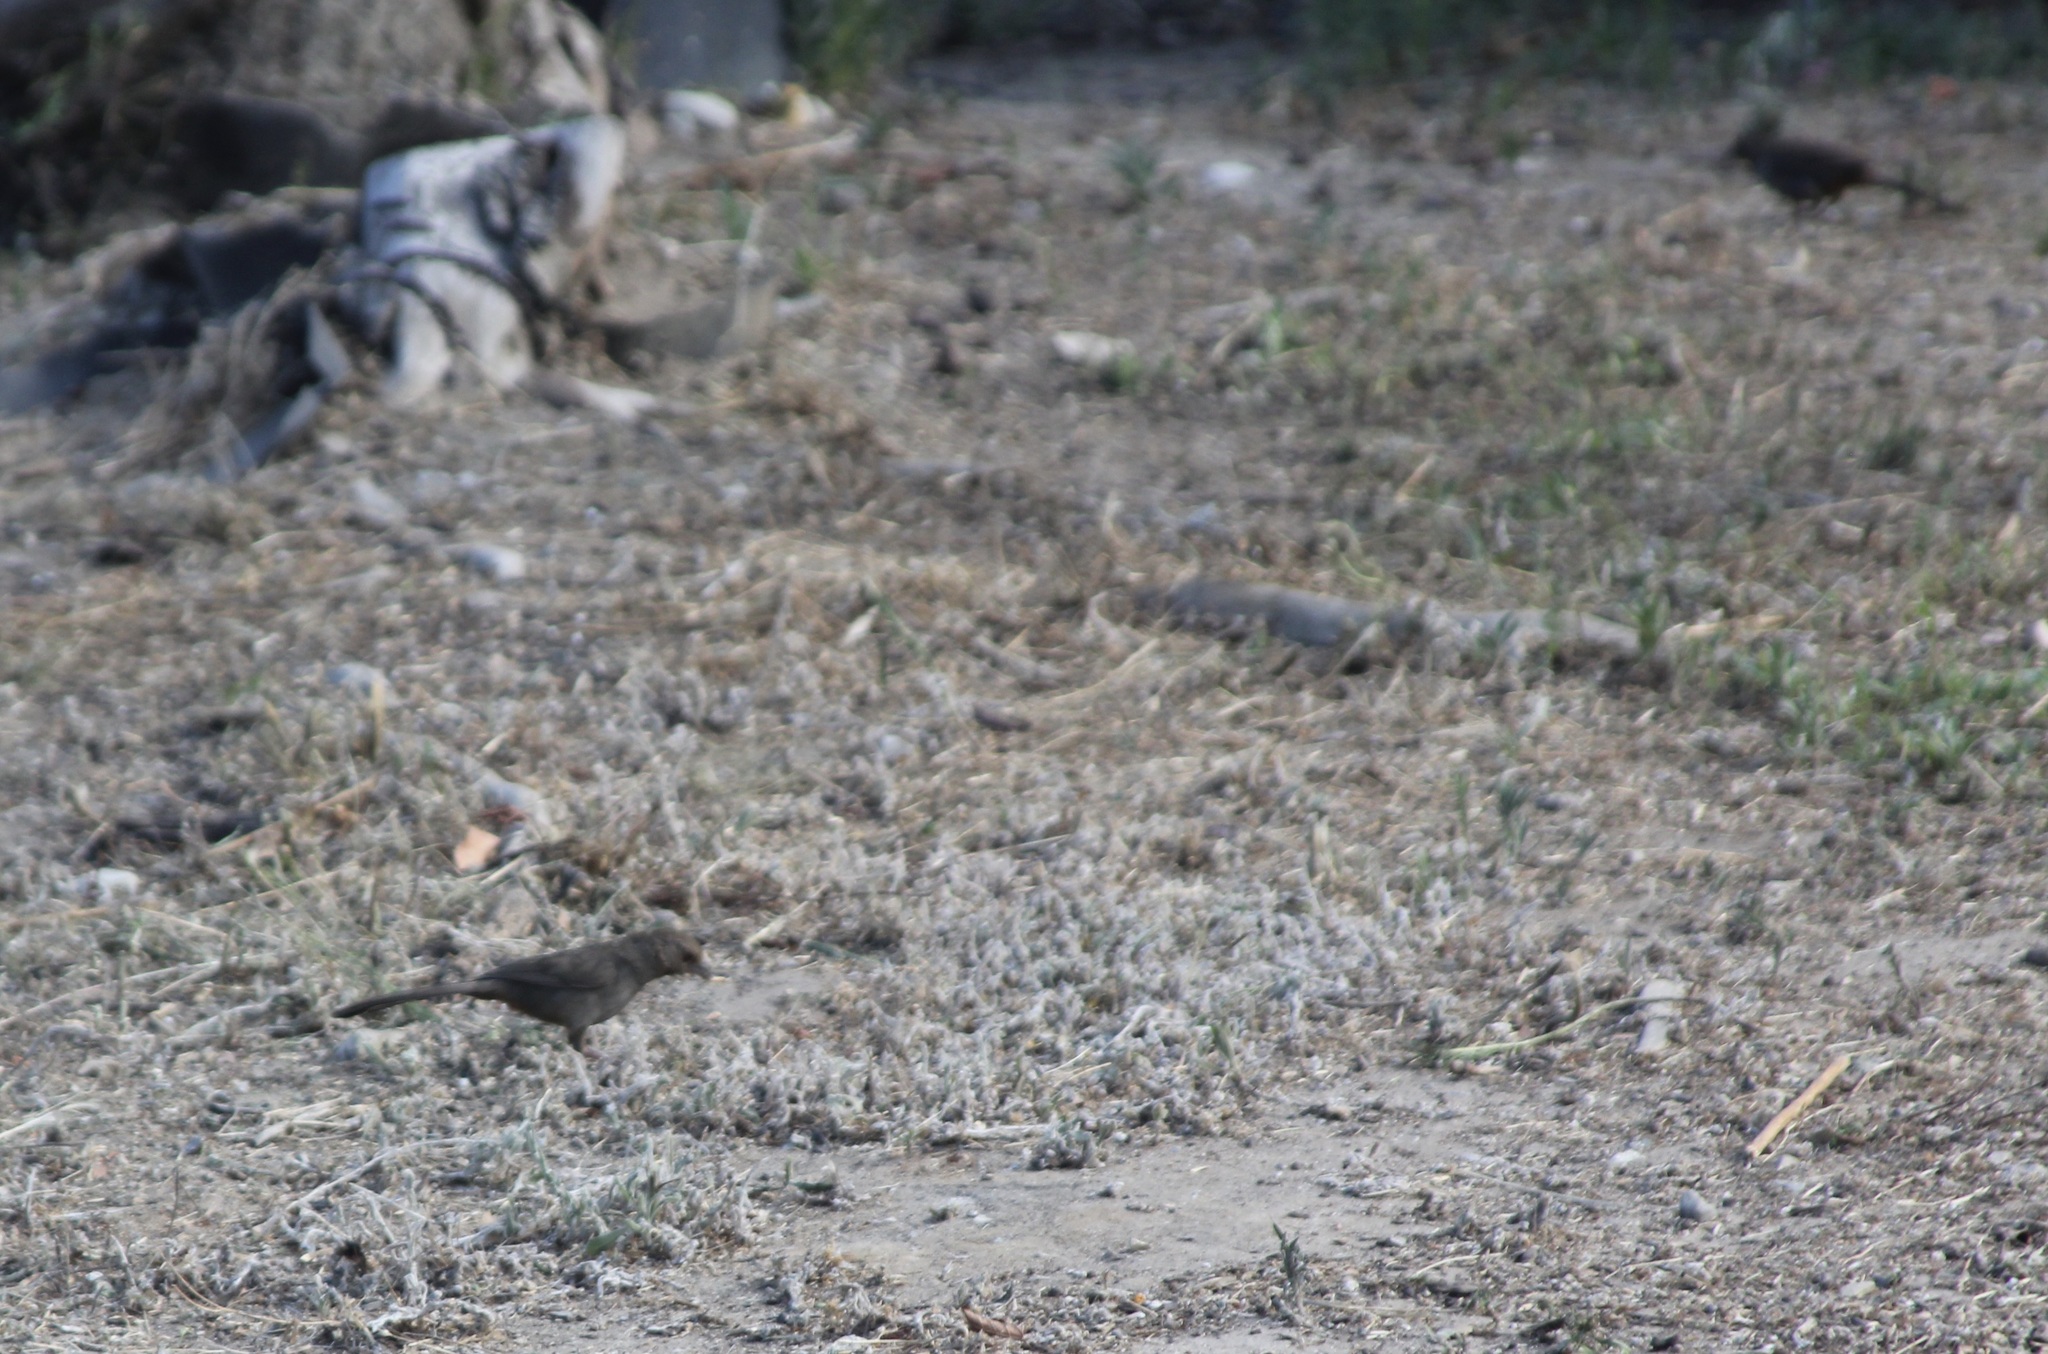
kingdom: Animalia
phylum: Chordata
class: Aves
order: Passeriformes
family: Passerellidae
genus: Melozone
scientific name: Melozone crissalis
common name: California towhee
